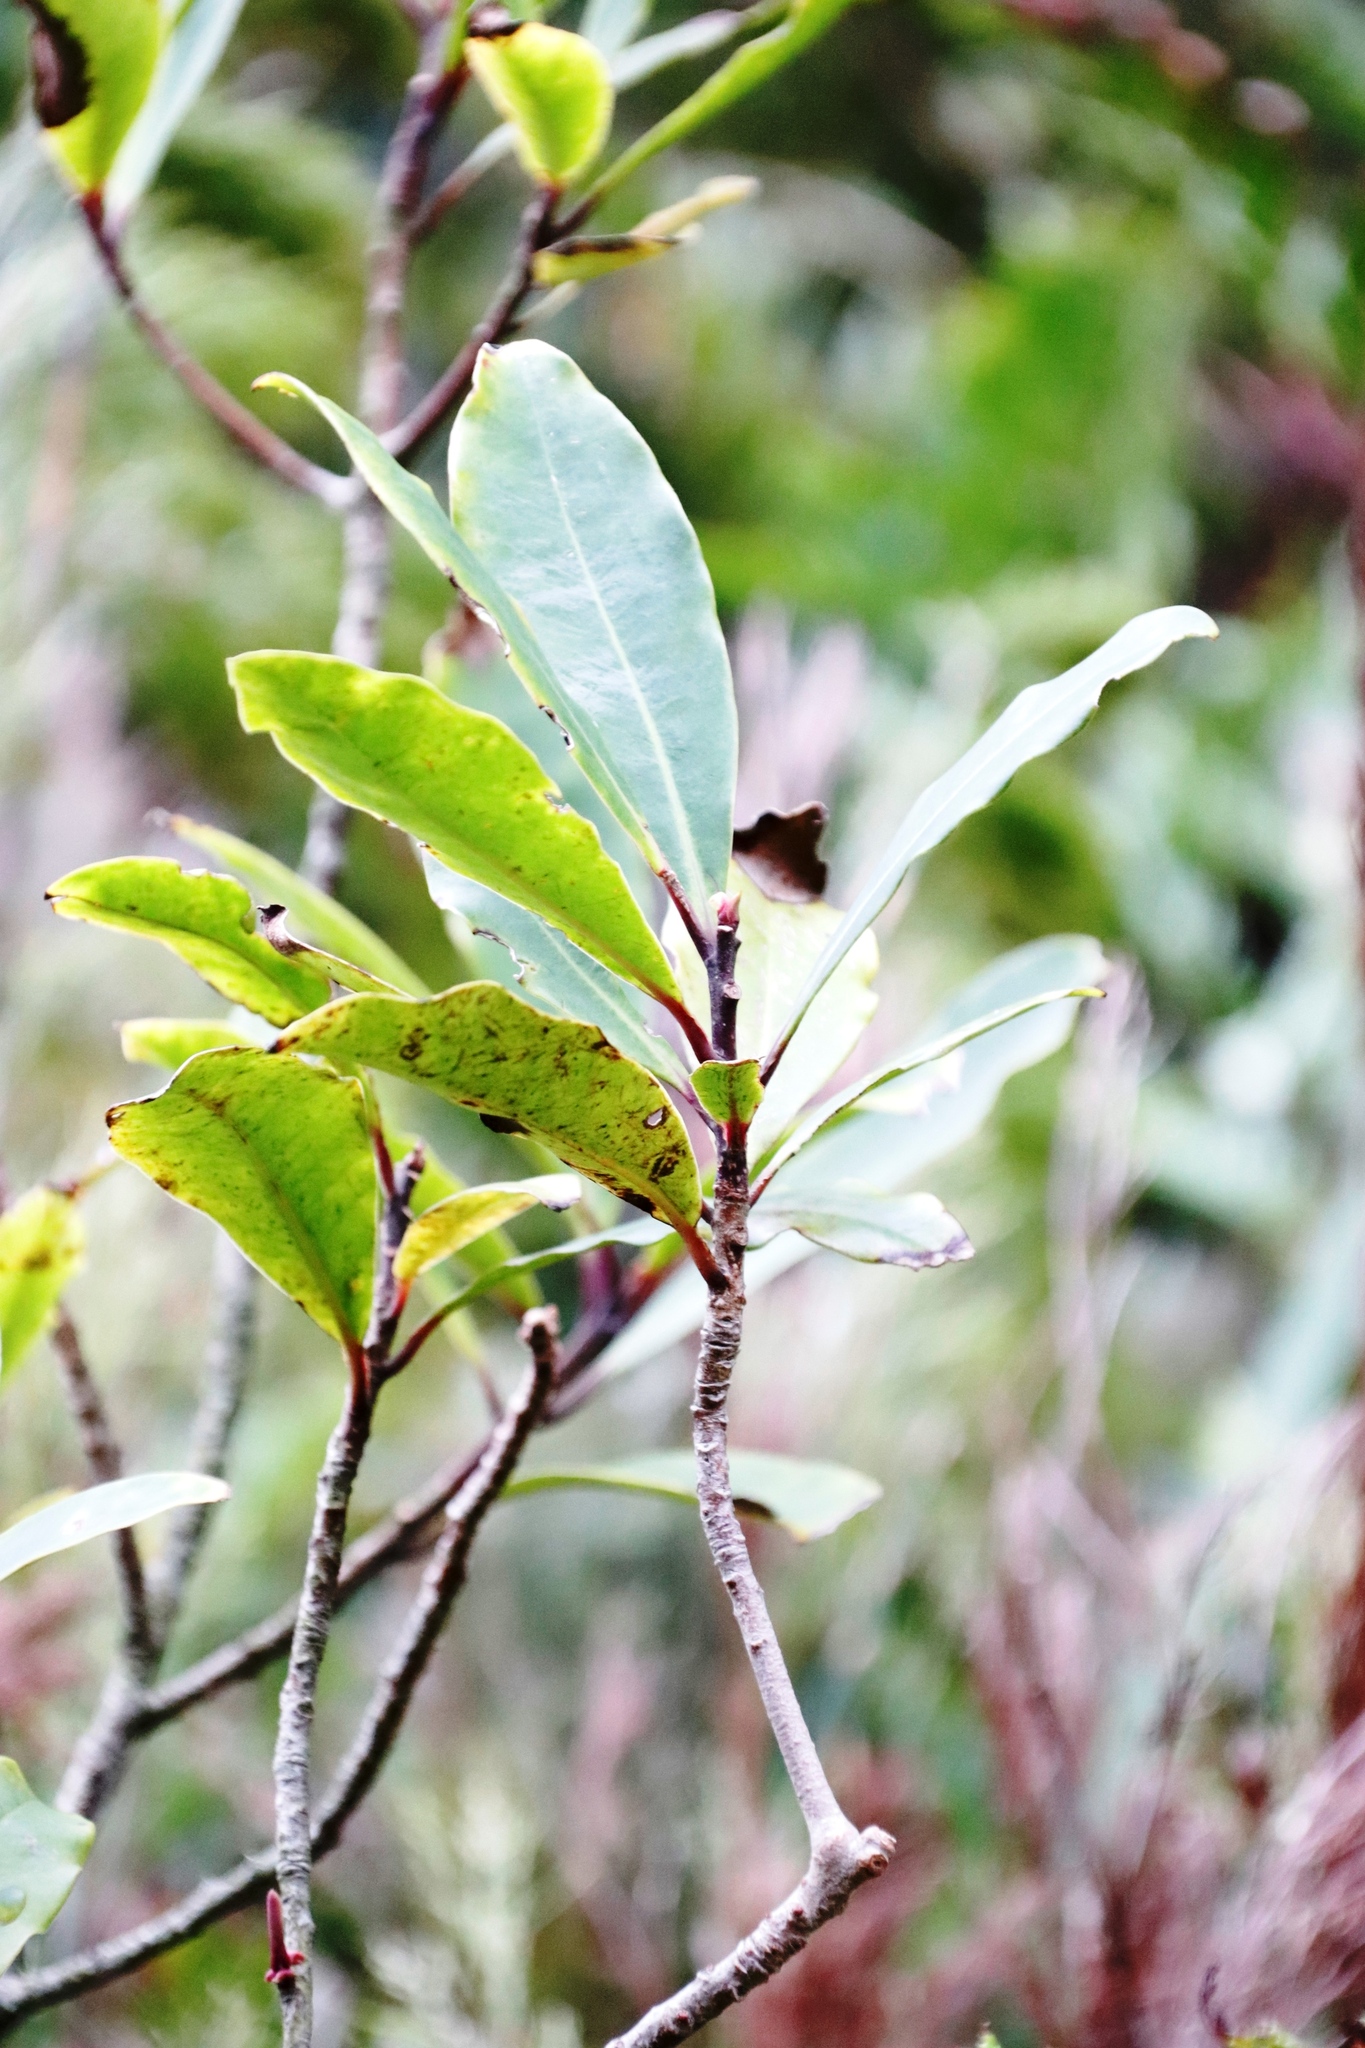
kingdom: Plantae
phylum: Tracheophyta
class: Magnoliopsida
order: Ericales
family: Primulaceae
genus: Myrsine
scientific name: Myrsine melanophloeos
